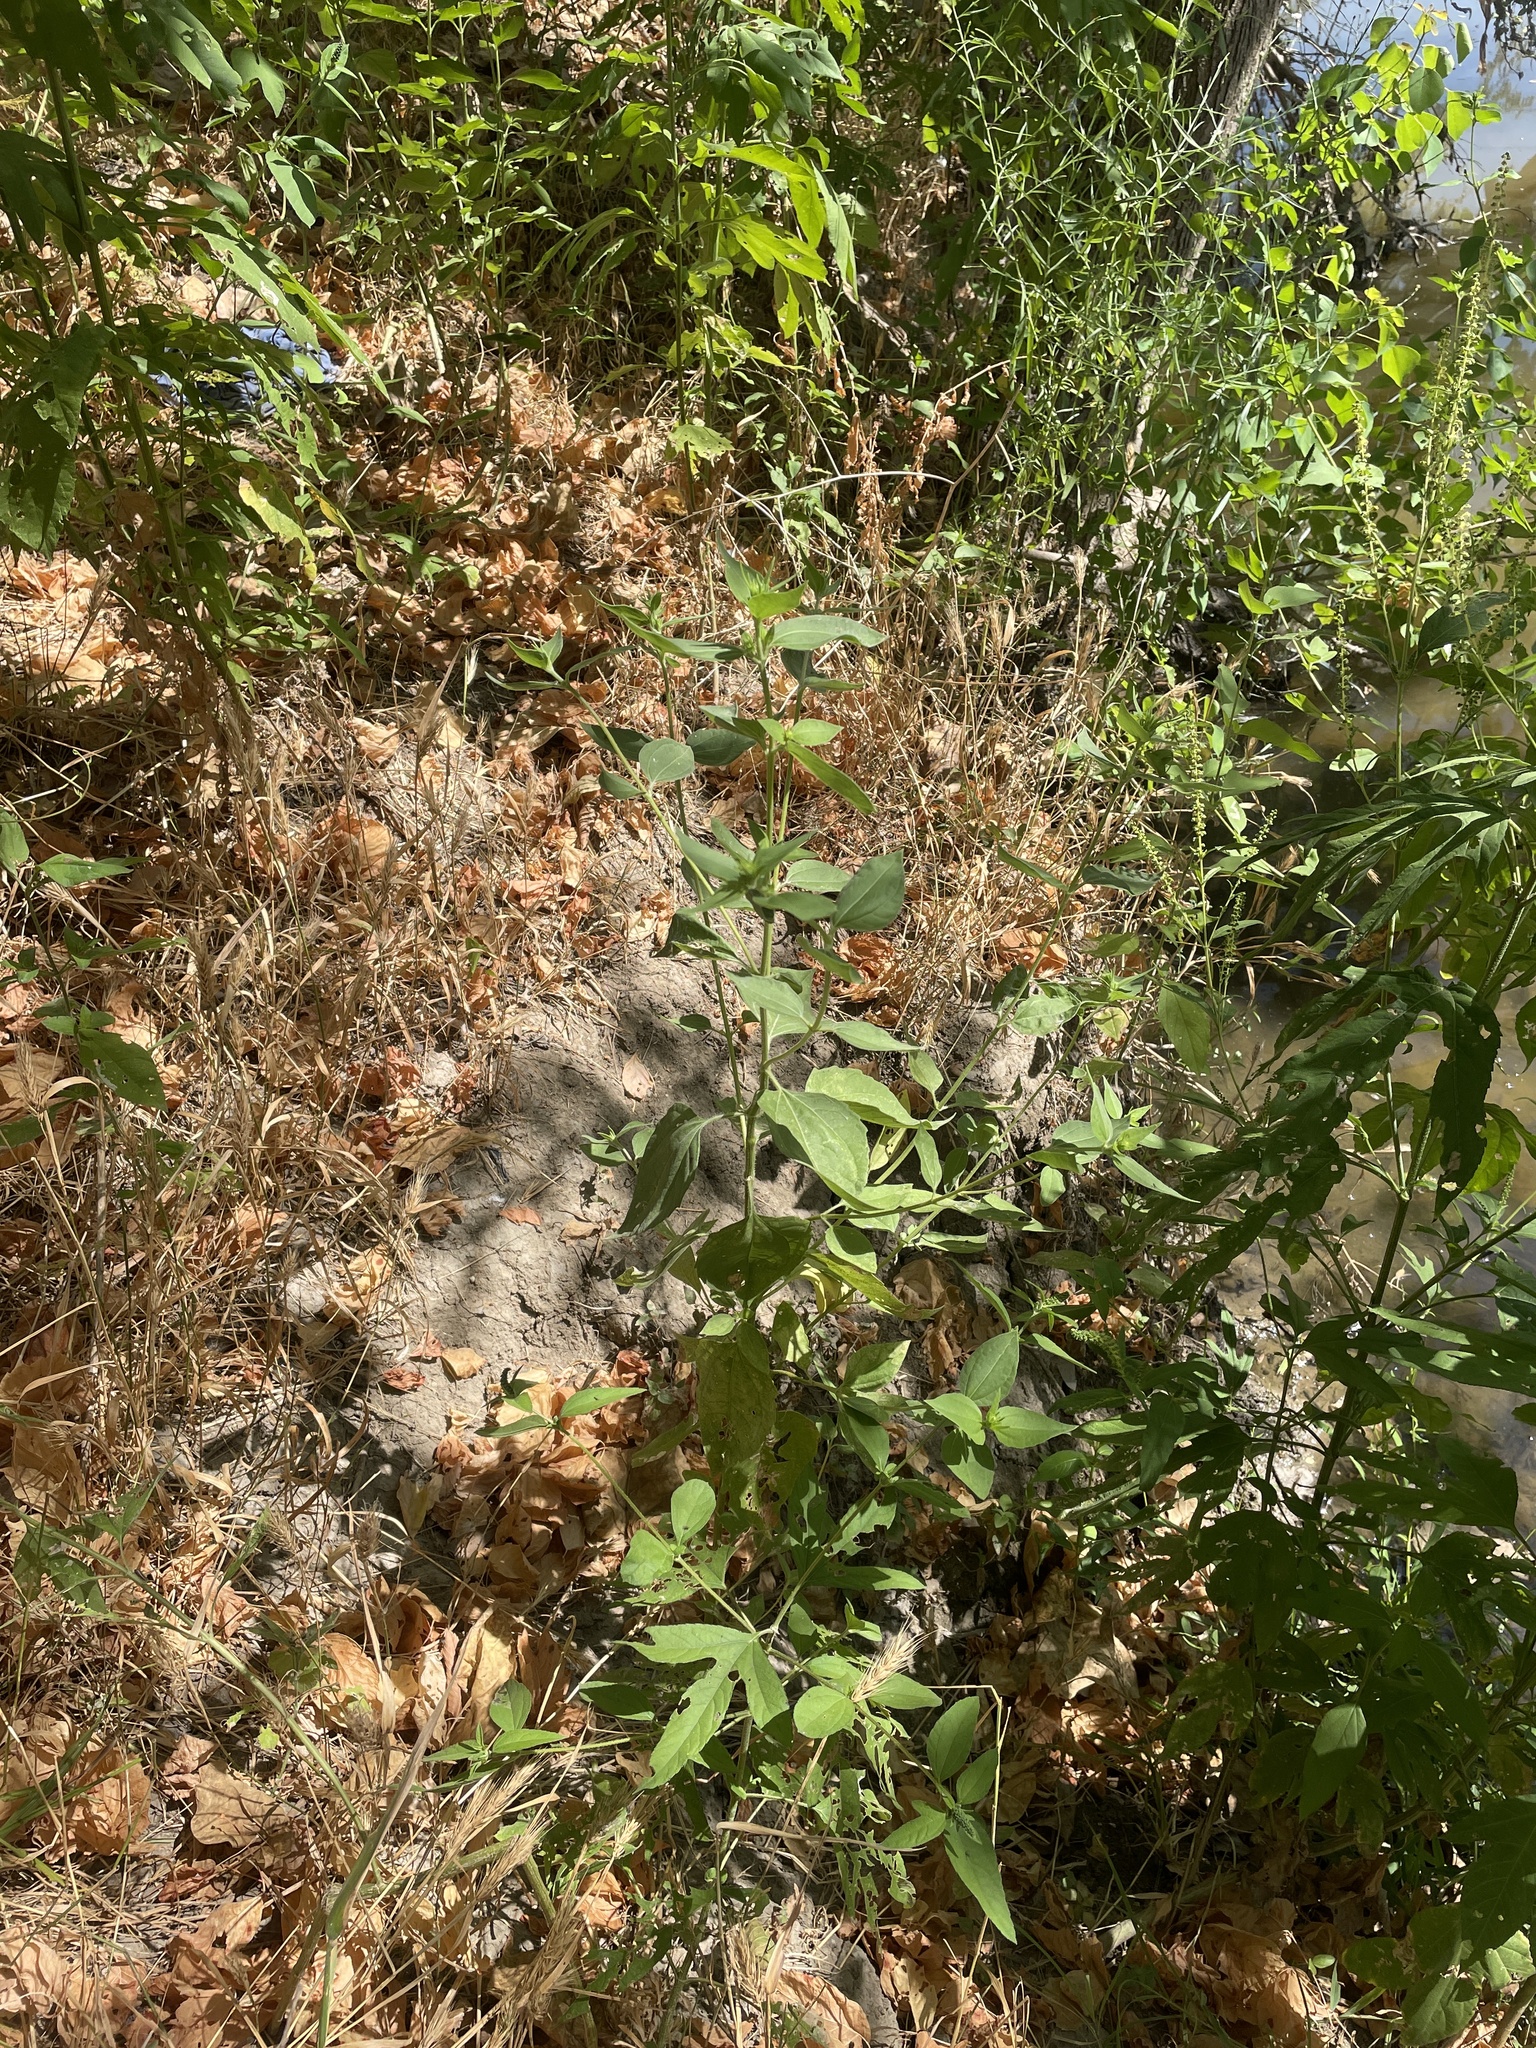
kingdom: Plantae
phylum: Tracheophyta
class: Magnoliopsida
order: Asterales
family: Asteraceae
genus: Iva
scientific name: Iva annua
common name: Marsh-elder
